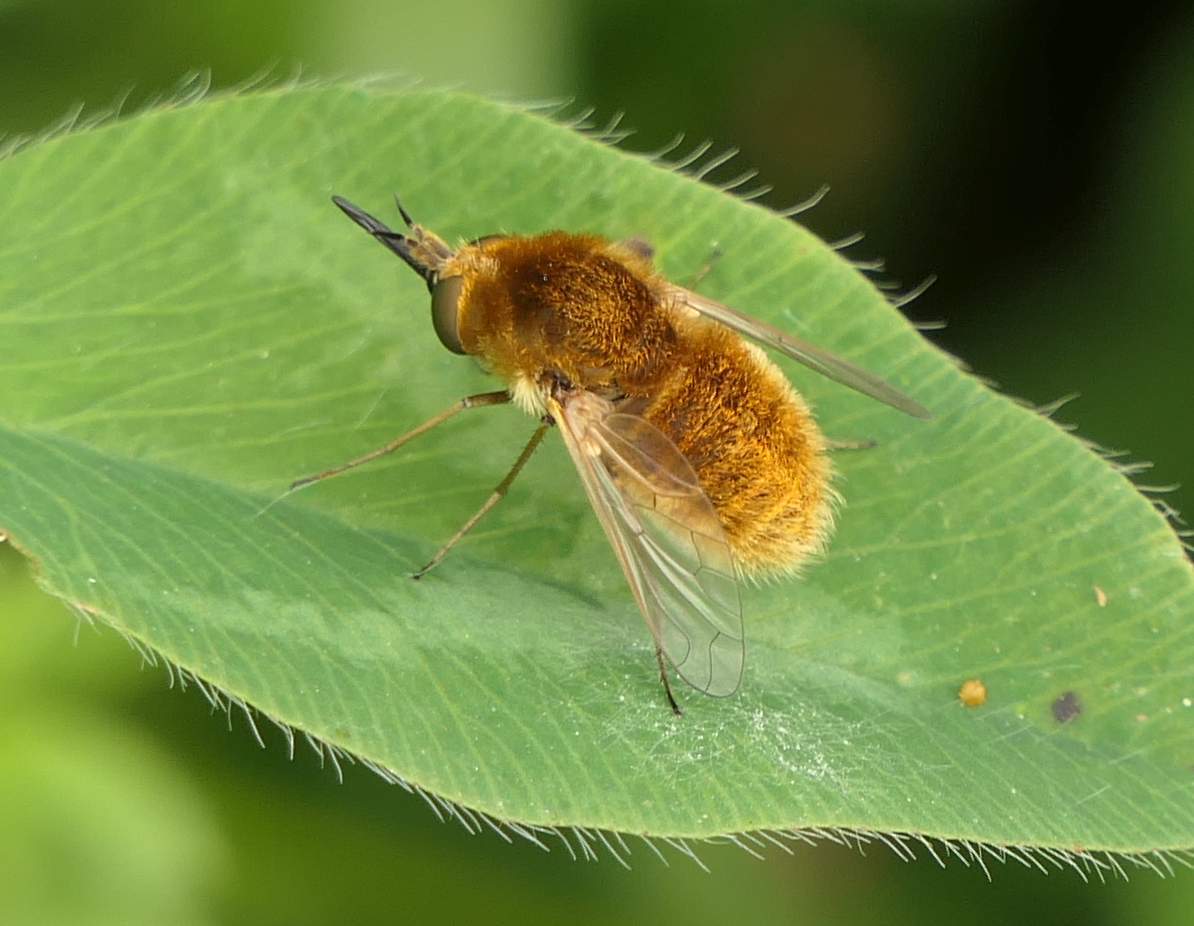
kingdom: Animalia
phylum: Arthropoda
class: Insecta
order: Diptera
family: Bombyliidae
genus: Sparnopolius
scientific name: Sparnopolius confusus
